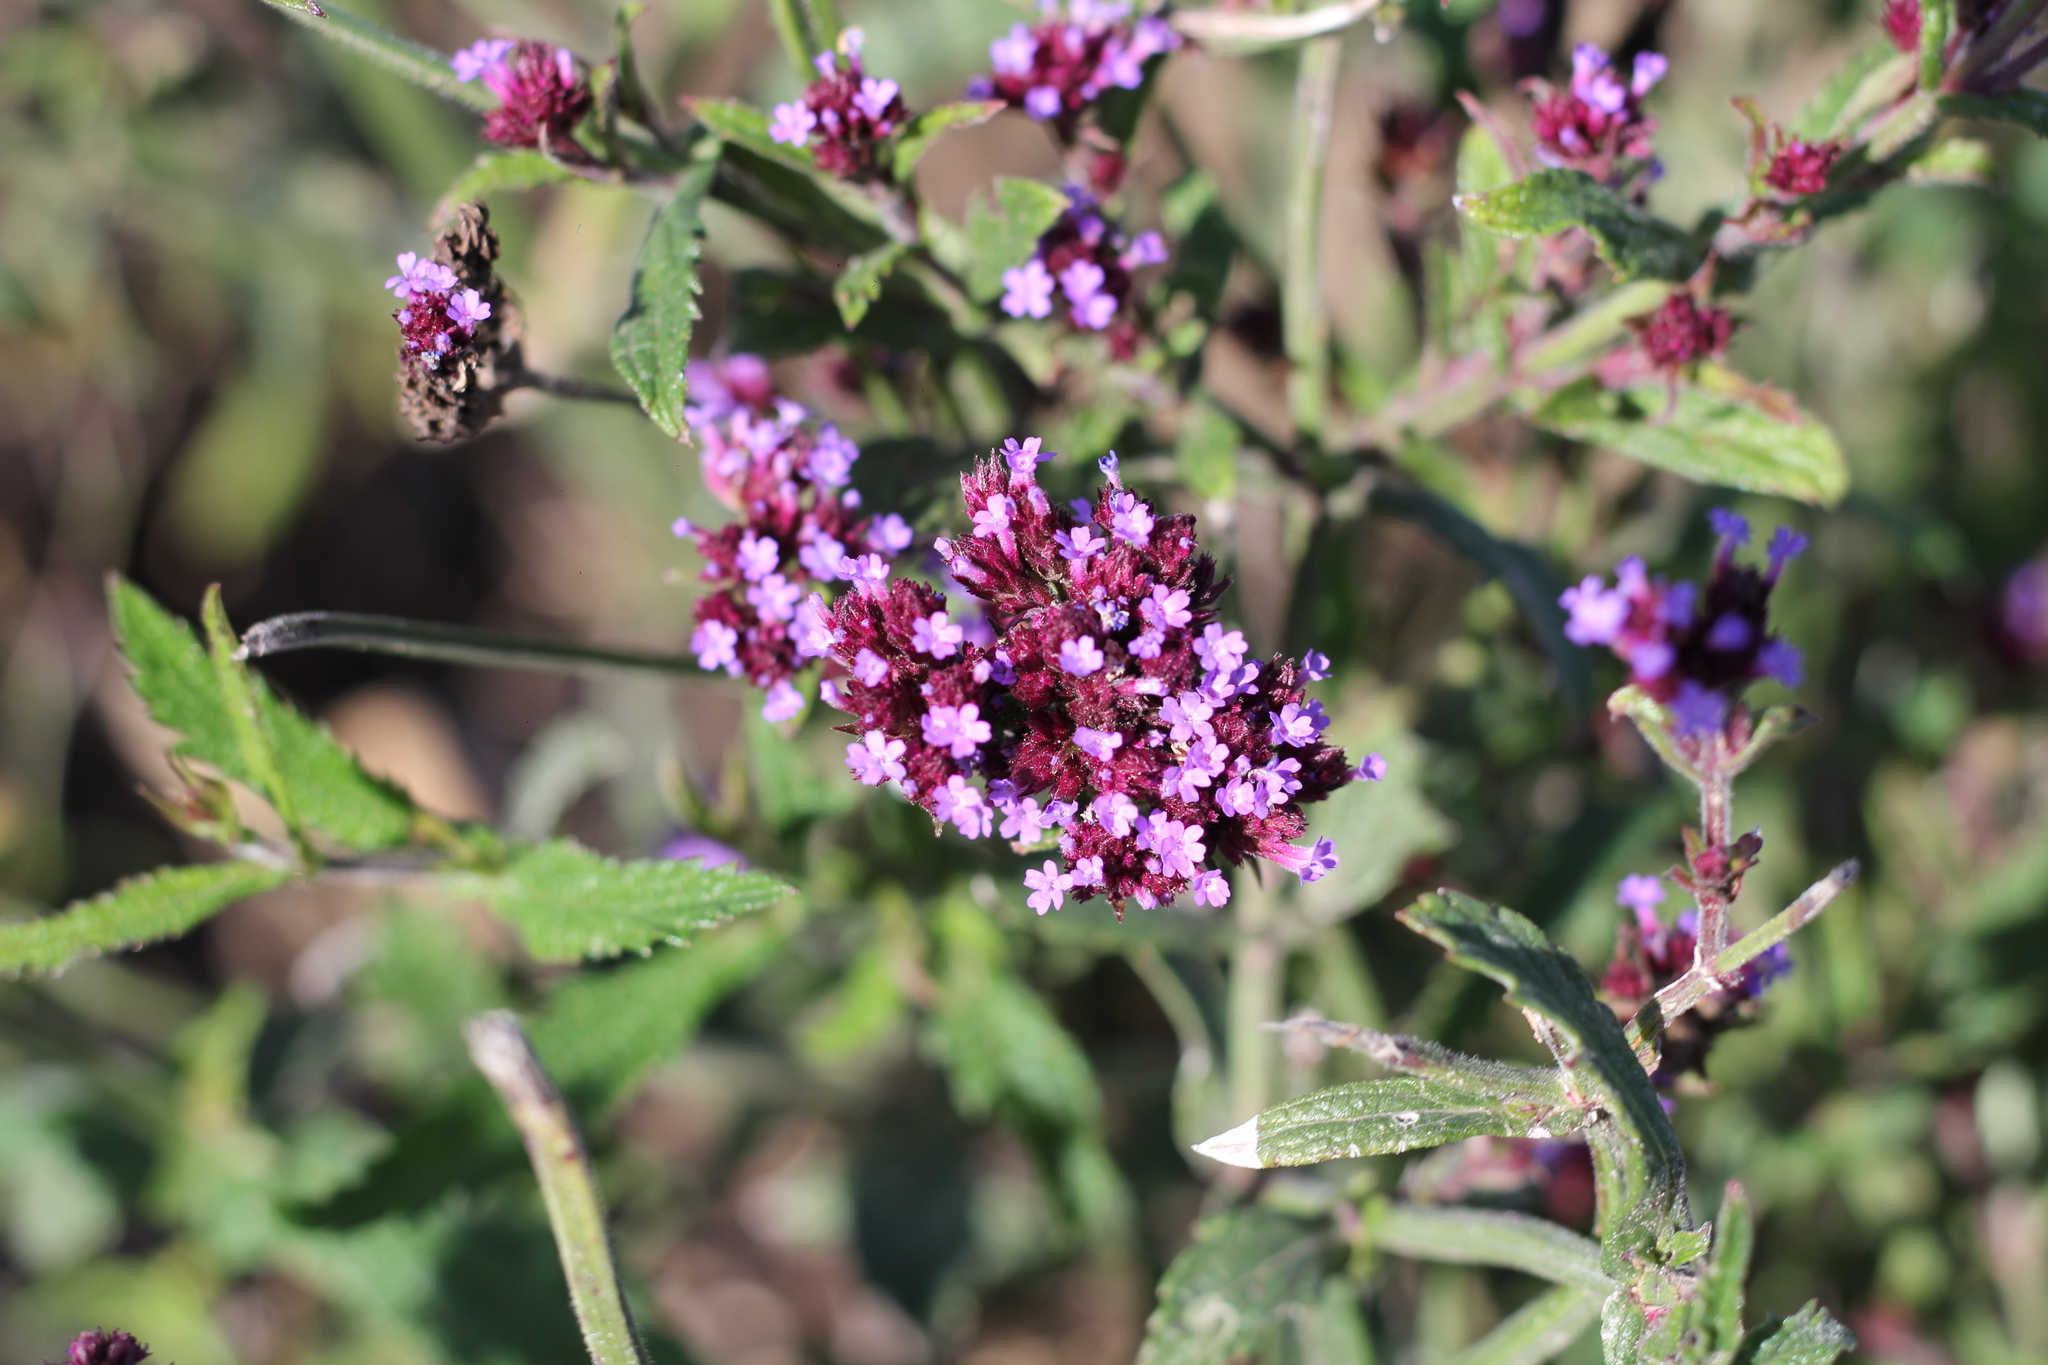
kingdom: Plantae
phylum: Tracheophyta
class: Magnoliopsida
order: Lamiales
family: Verbenaceae
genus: Verbena
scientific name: Verbena bonariensis
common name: Purpletop vervain
